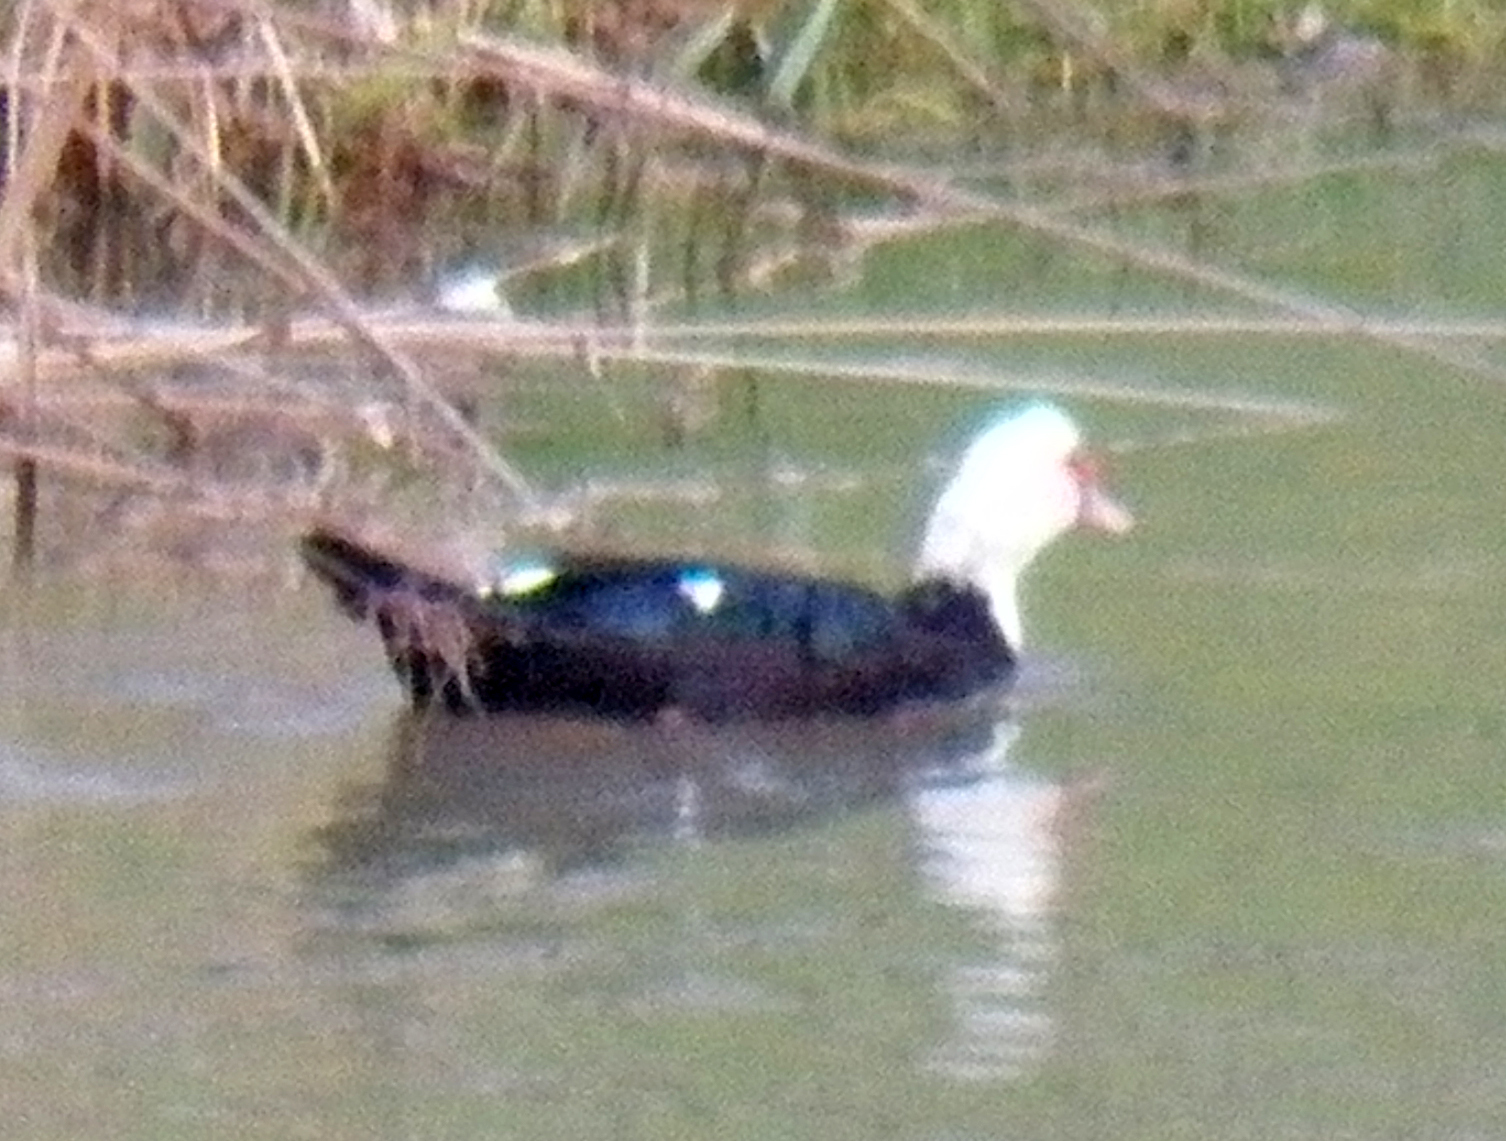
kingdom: Animalia
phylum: Chordata
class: Aves
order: Anseriformes
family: Anatidae
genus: Cairina
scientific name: Cairina moschata
